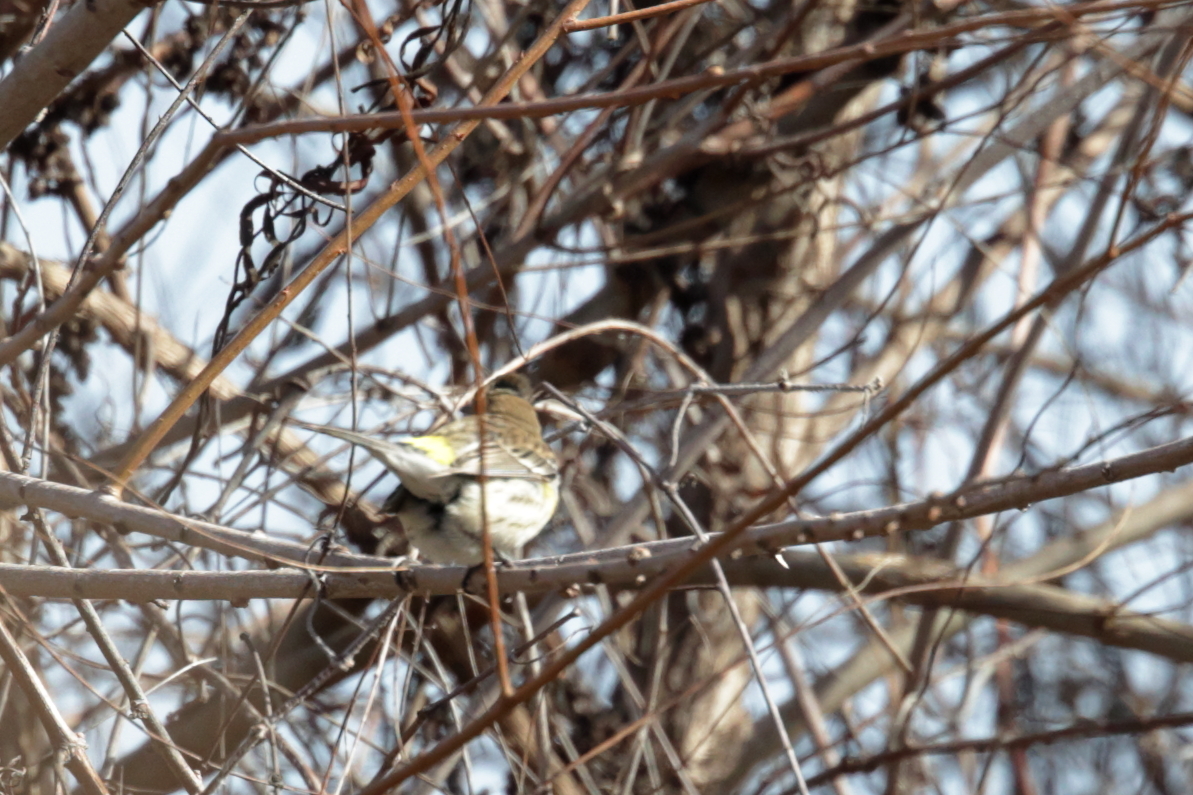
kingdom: Animalia
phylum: Chordata
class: Aves
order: Passeriformes
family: Parulidae
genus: Setophaga
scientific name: Setophaga coronata
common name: Myrtle warbler
